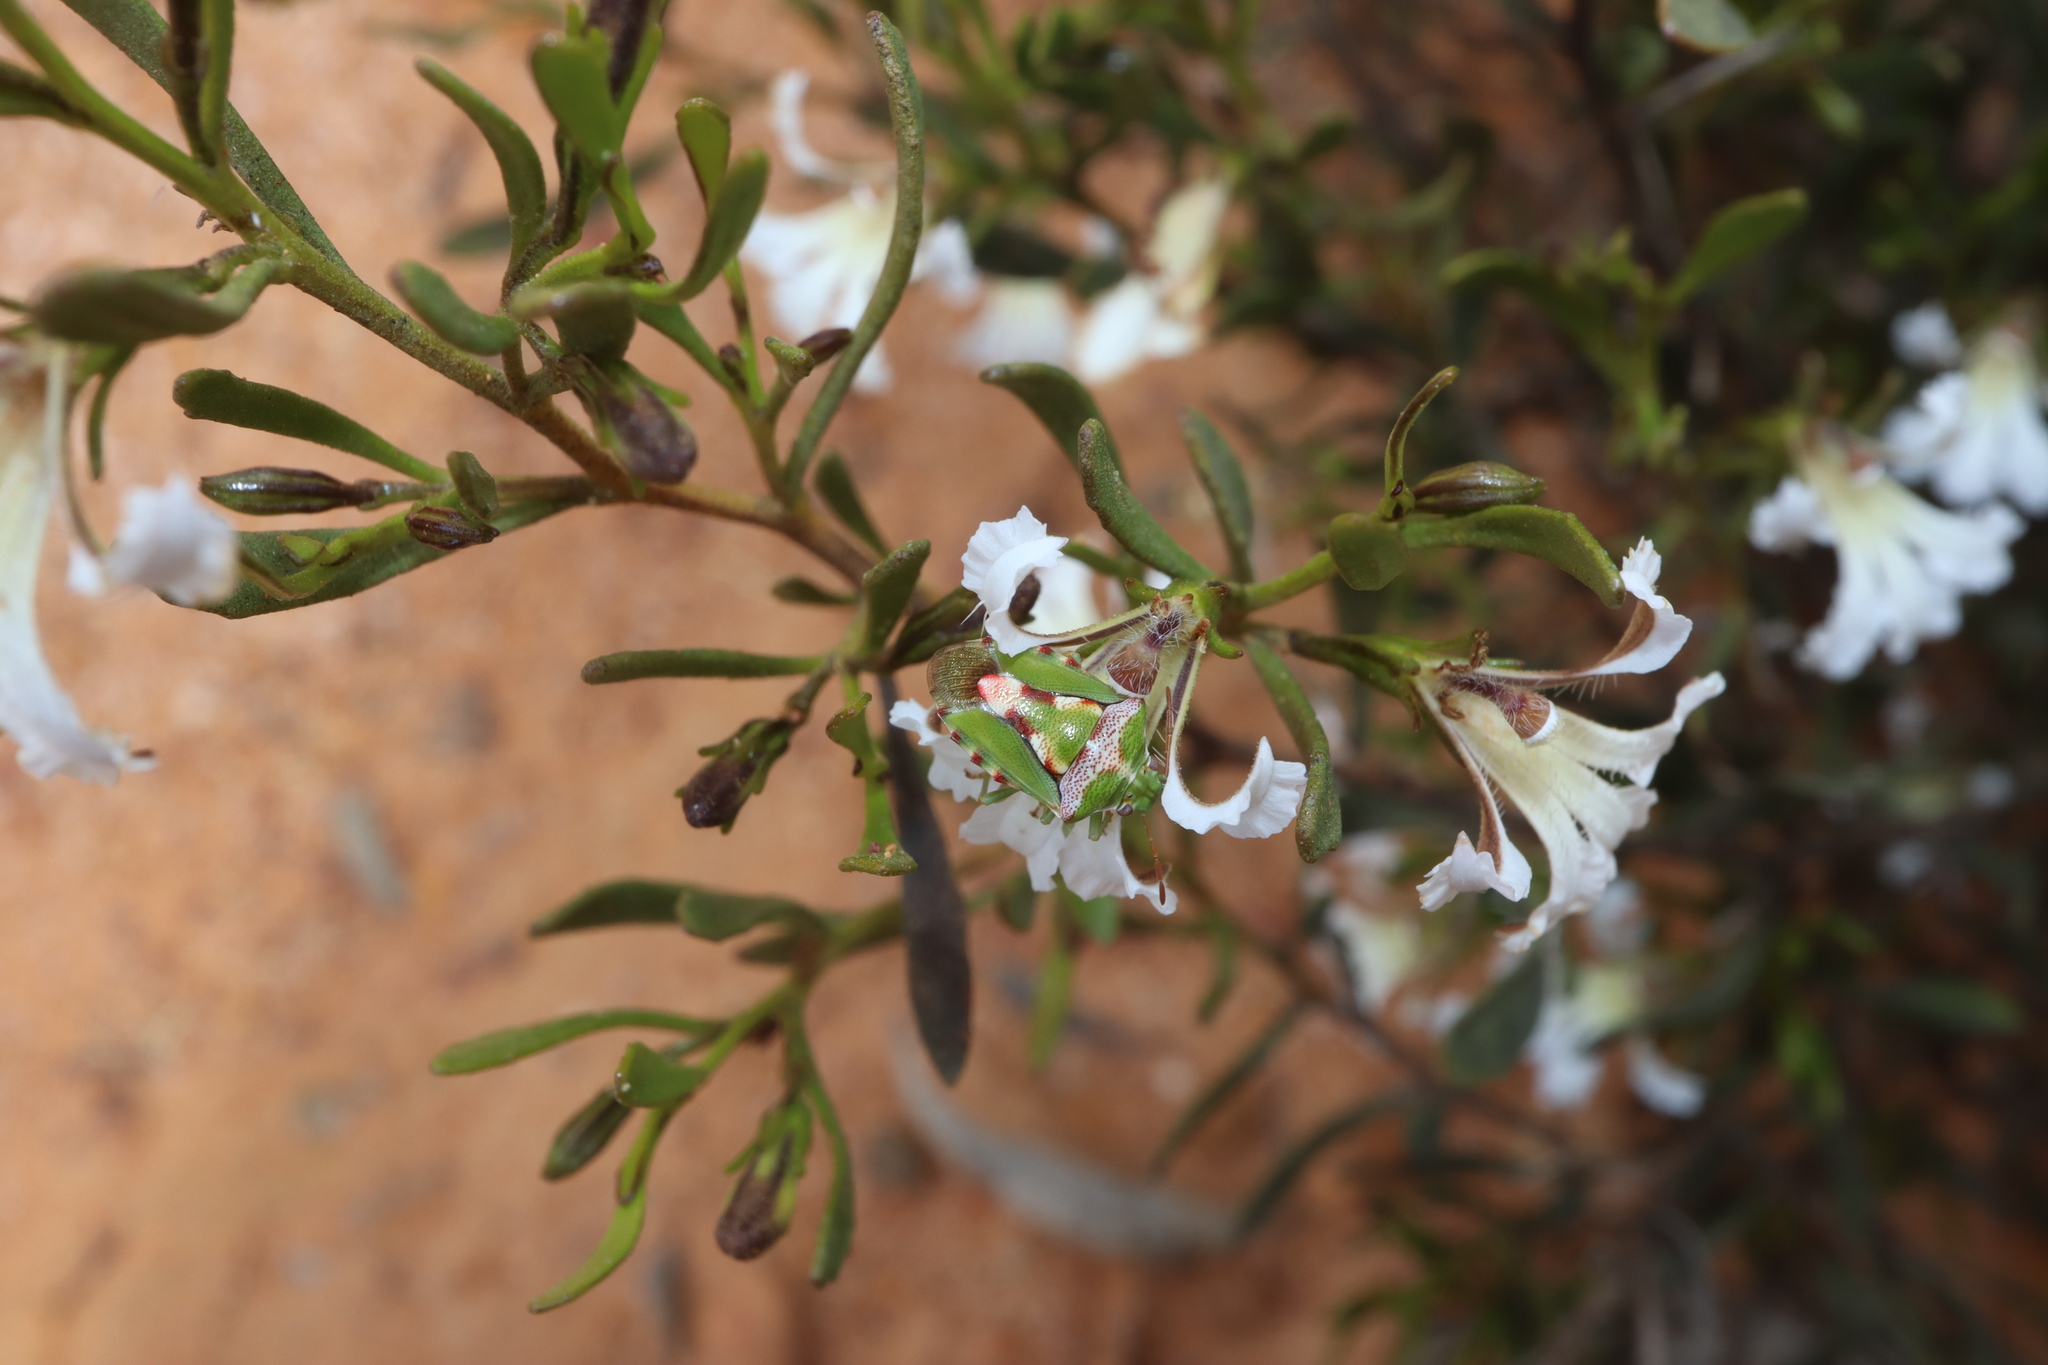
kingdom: Plantae
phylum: Tracheophyta
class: Magnoliopsida
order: Asterales
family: Goodeniaceae
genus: Goodenia
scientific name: Goodenia strophiolata
